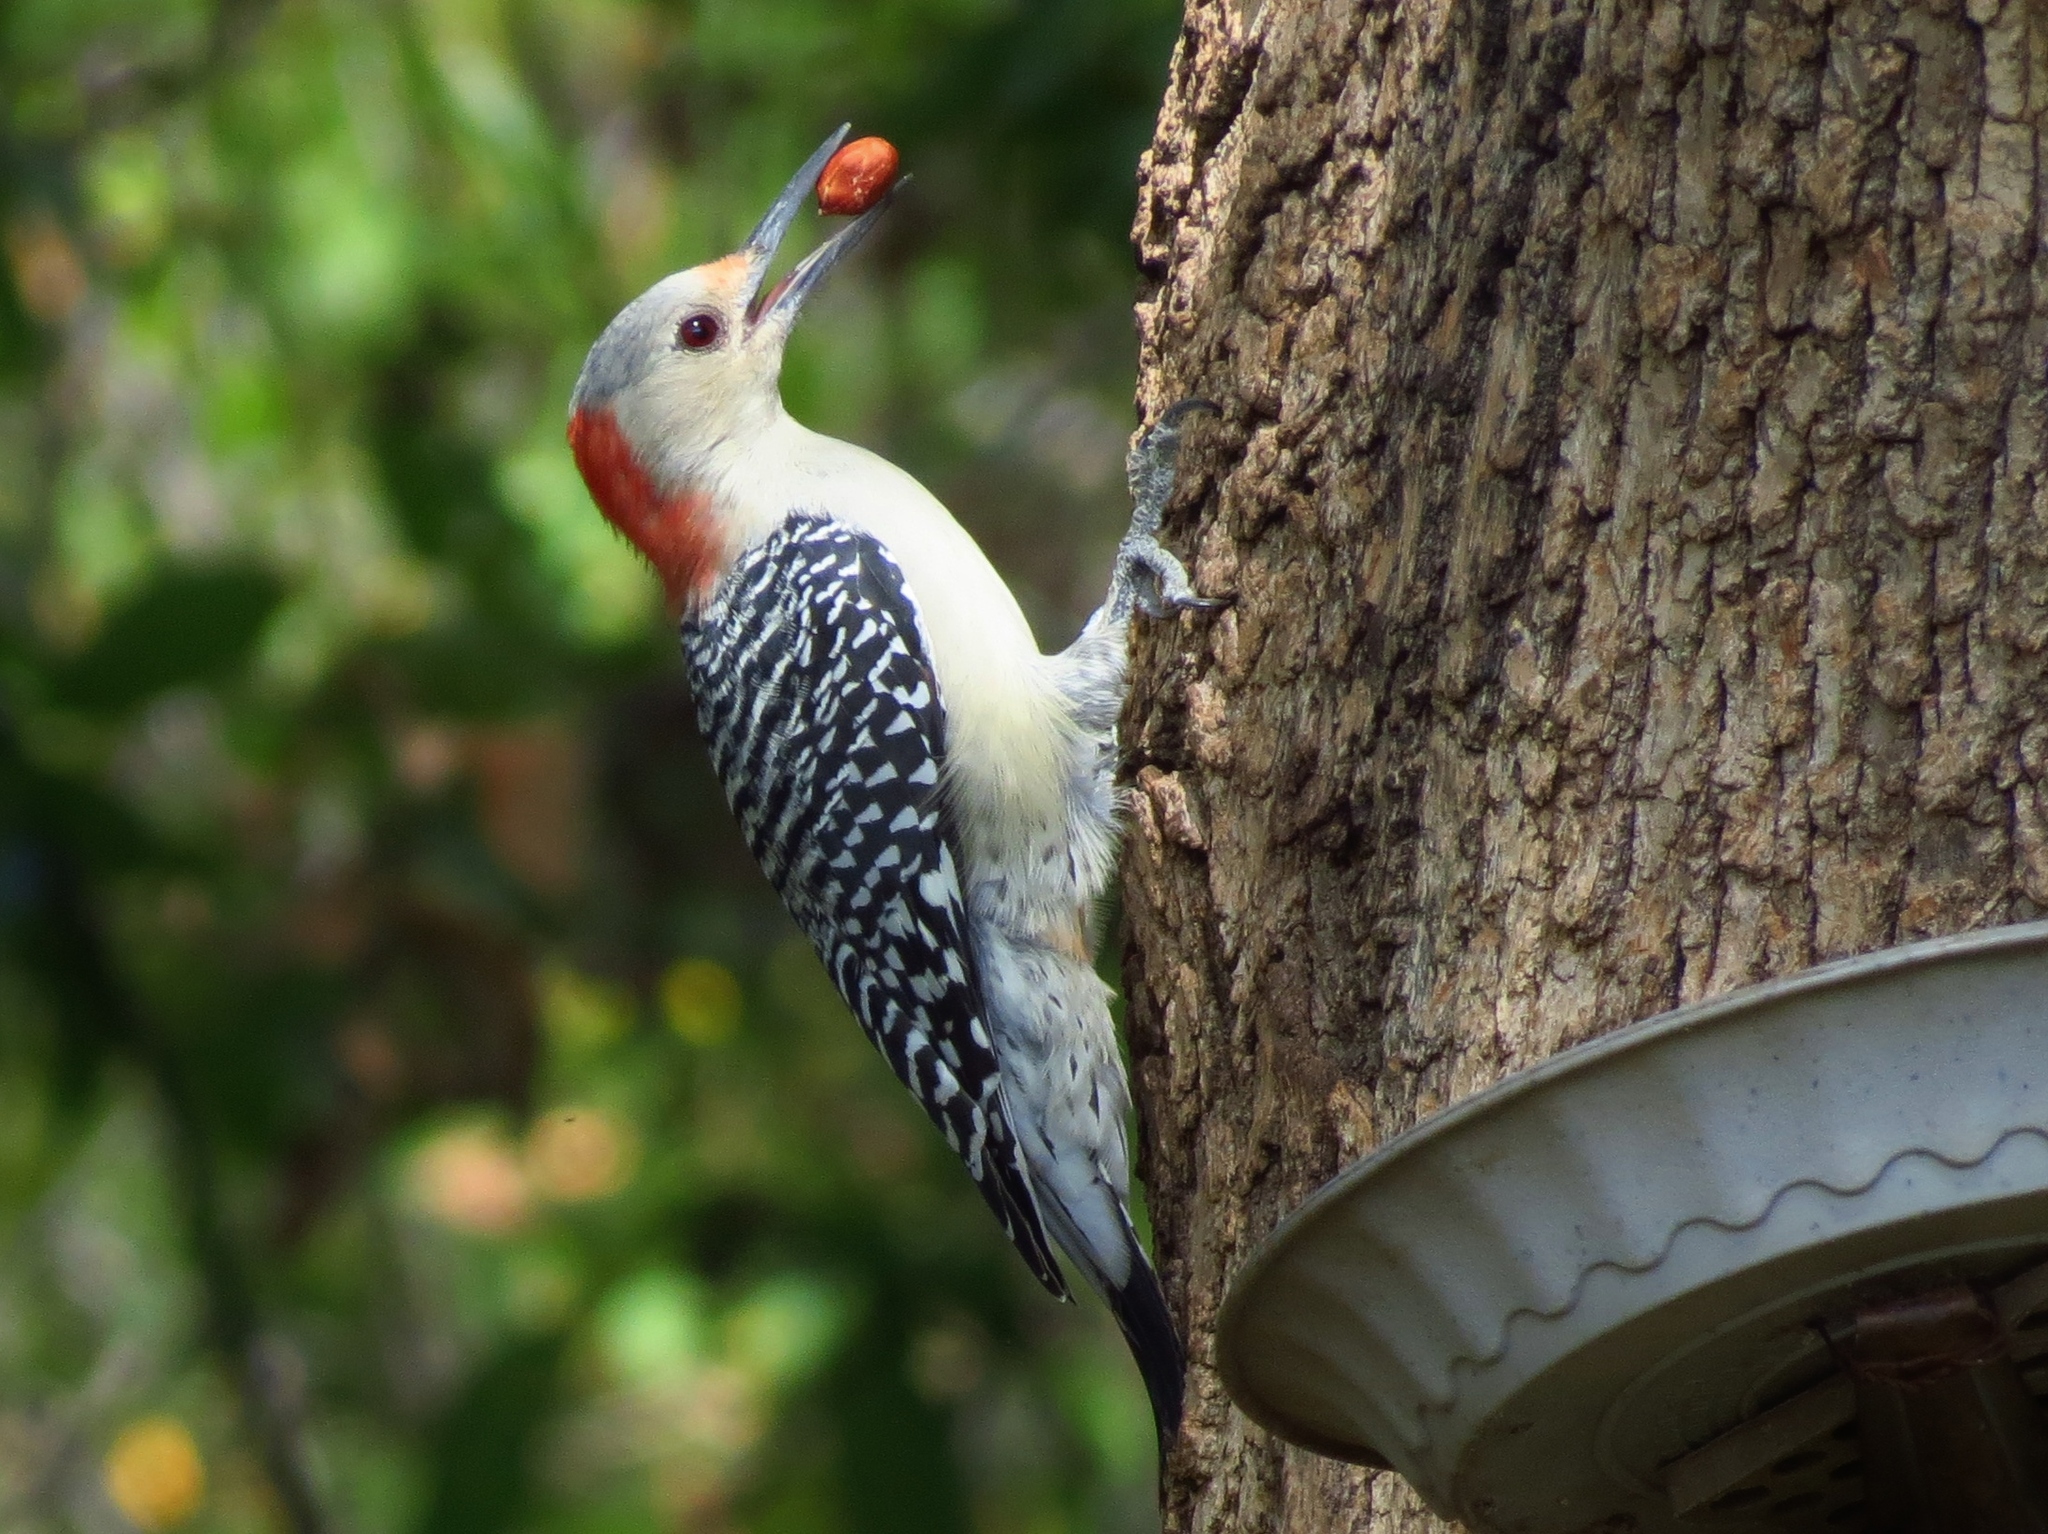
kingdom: Animalia
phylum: Chordata
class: Aves
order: Piciformes
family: Picidae
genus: Melanerpes
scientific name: Melanerpes carolinus
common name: Red-bellied woodpecker
